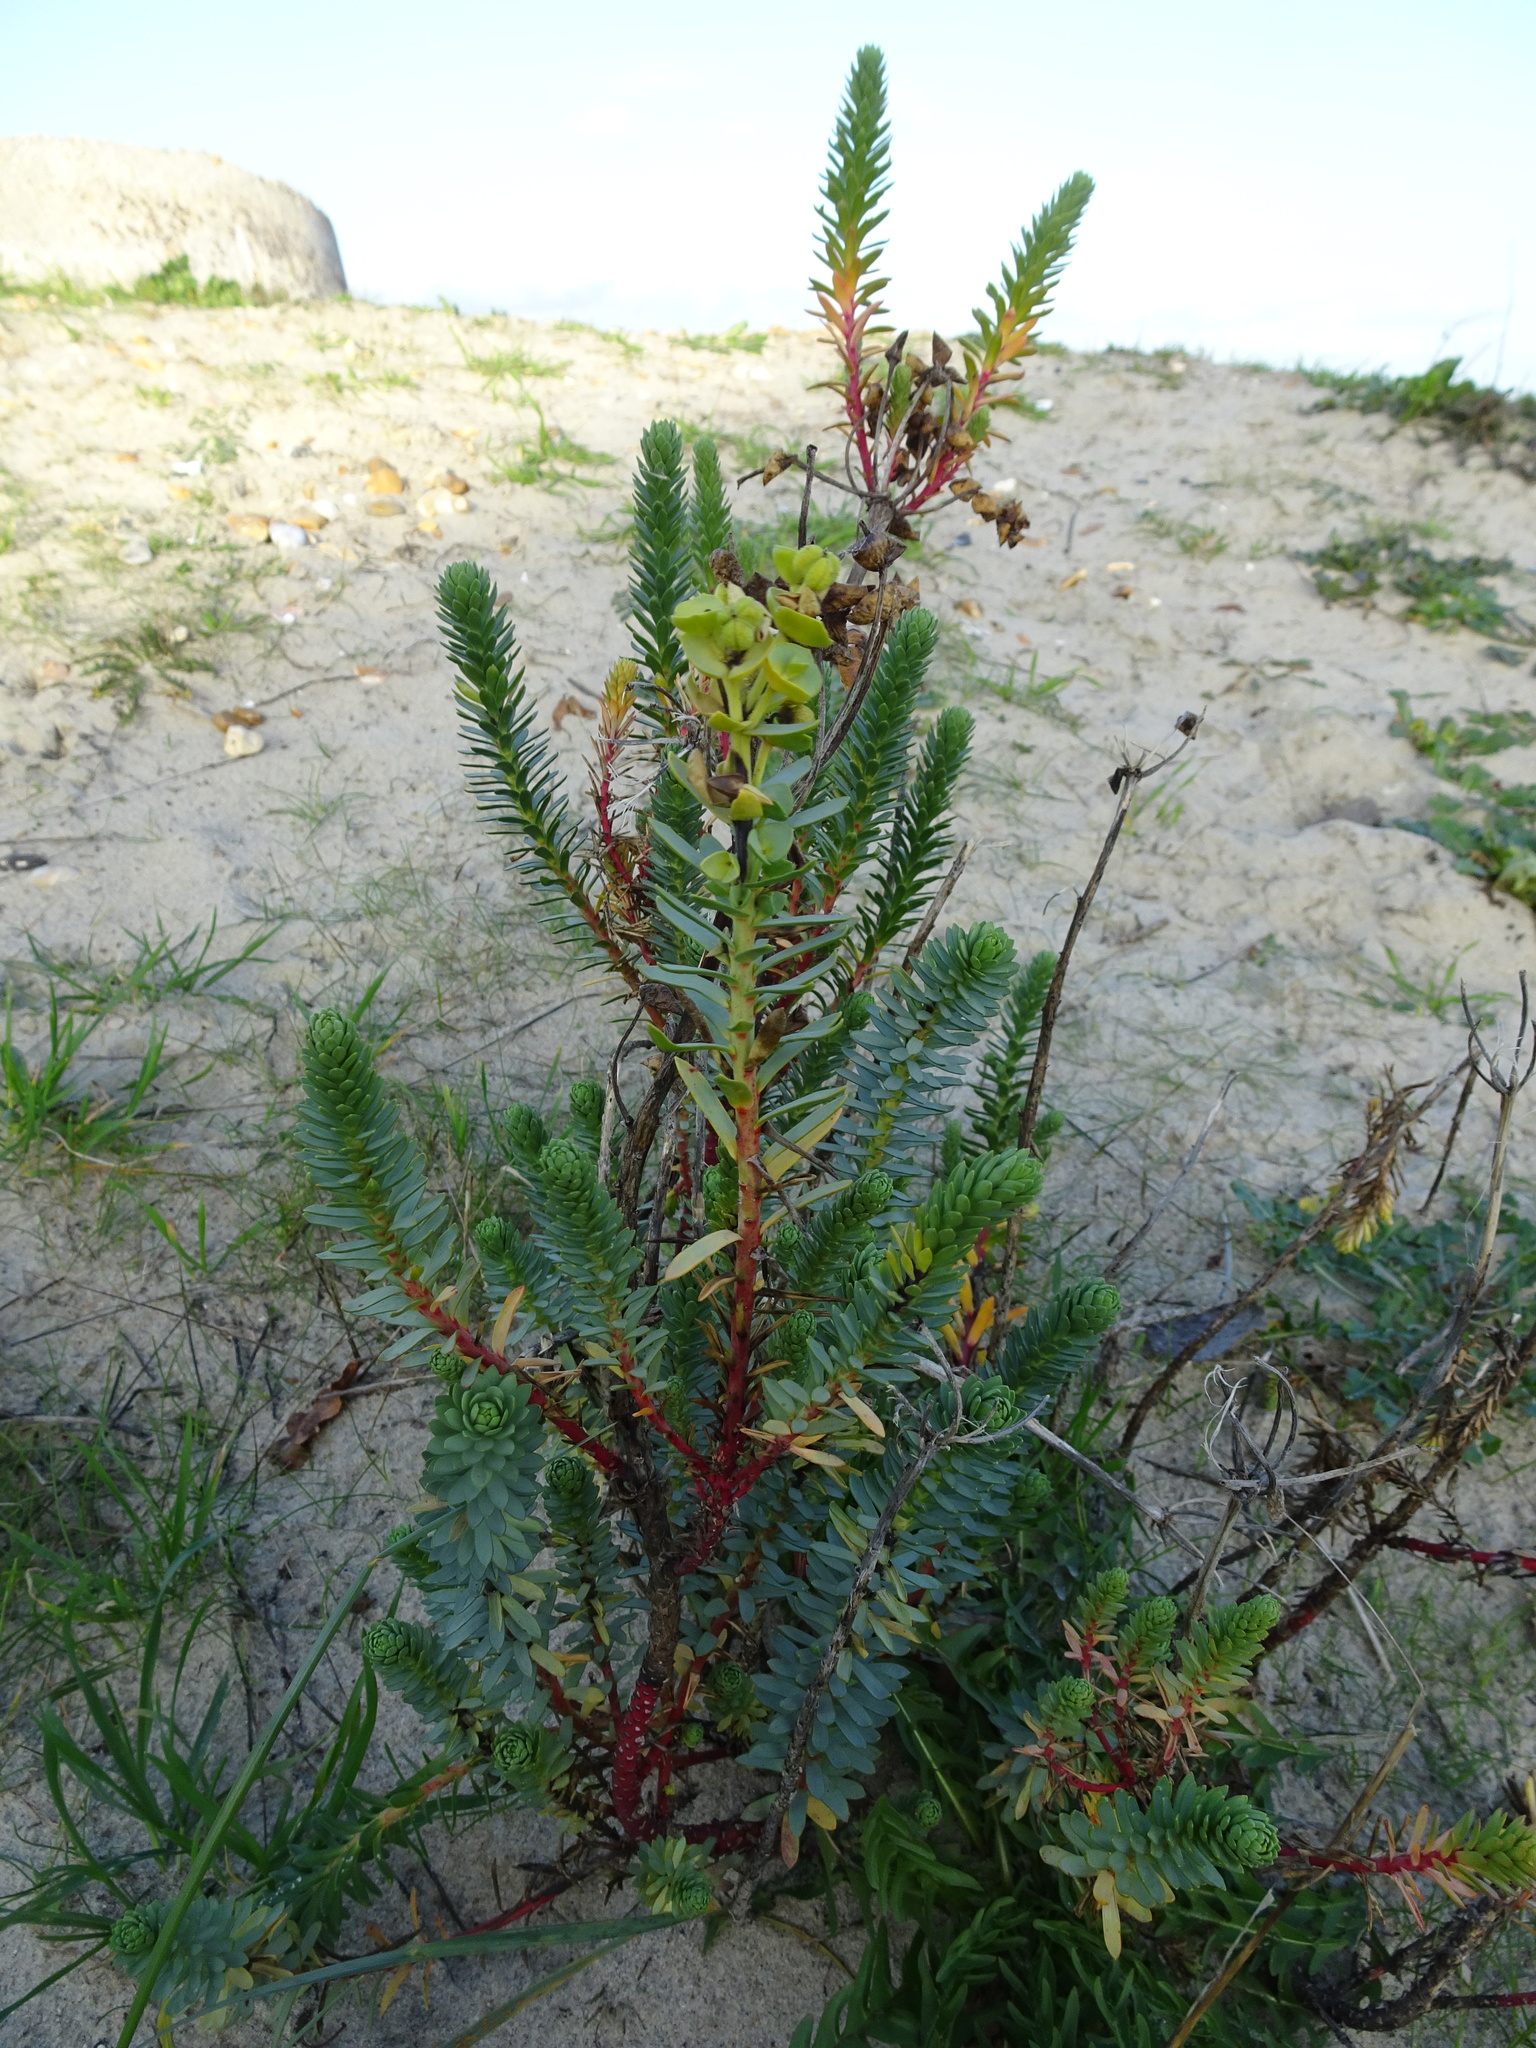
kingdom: Plantae
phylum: Tracheophyta
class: Magnoliopsida
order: Malpighiales
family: Euphorbiaceae
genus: Euphorbia
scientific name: Euphorbia paralias
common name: Sea spurge
